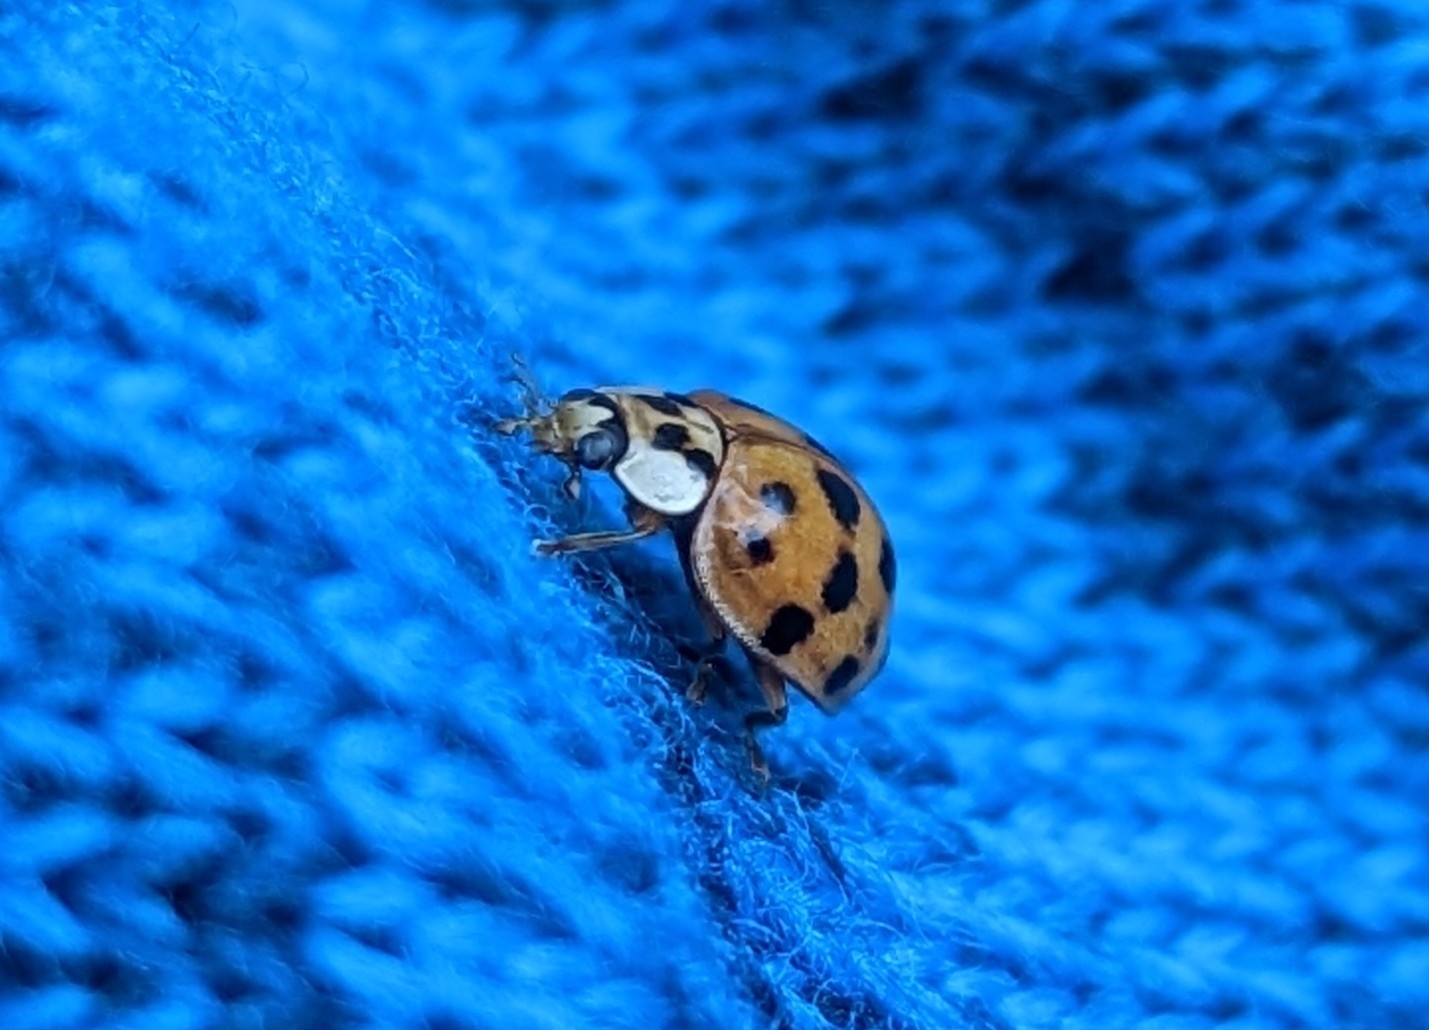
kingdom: Animalia
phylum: Arthropoda
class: Insecta
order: Coleoptera
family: Coccinellidae
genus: Harmonia
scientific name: Harmonia axyridis
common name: Harlequin ladybird
